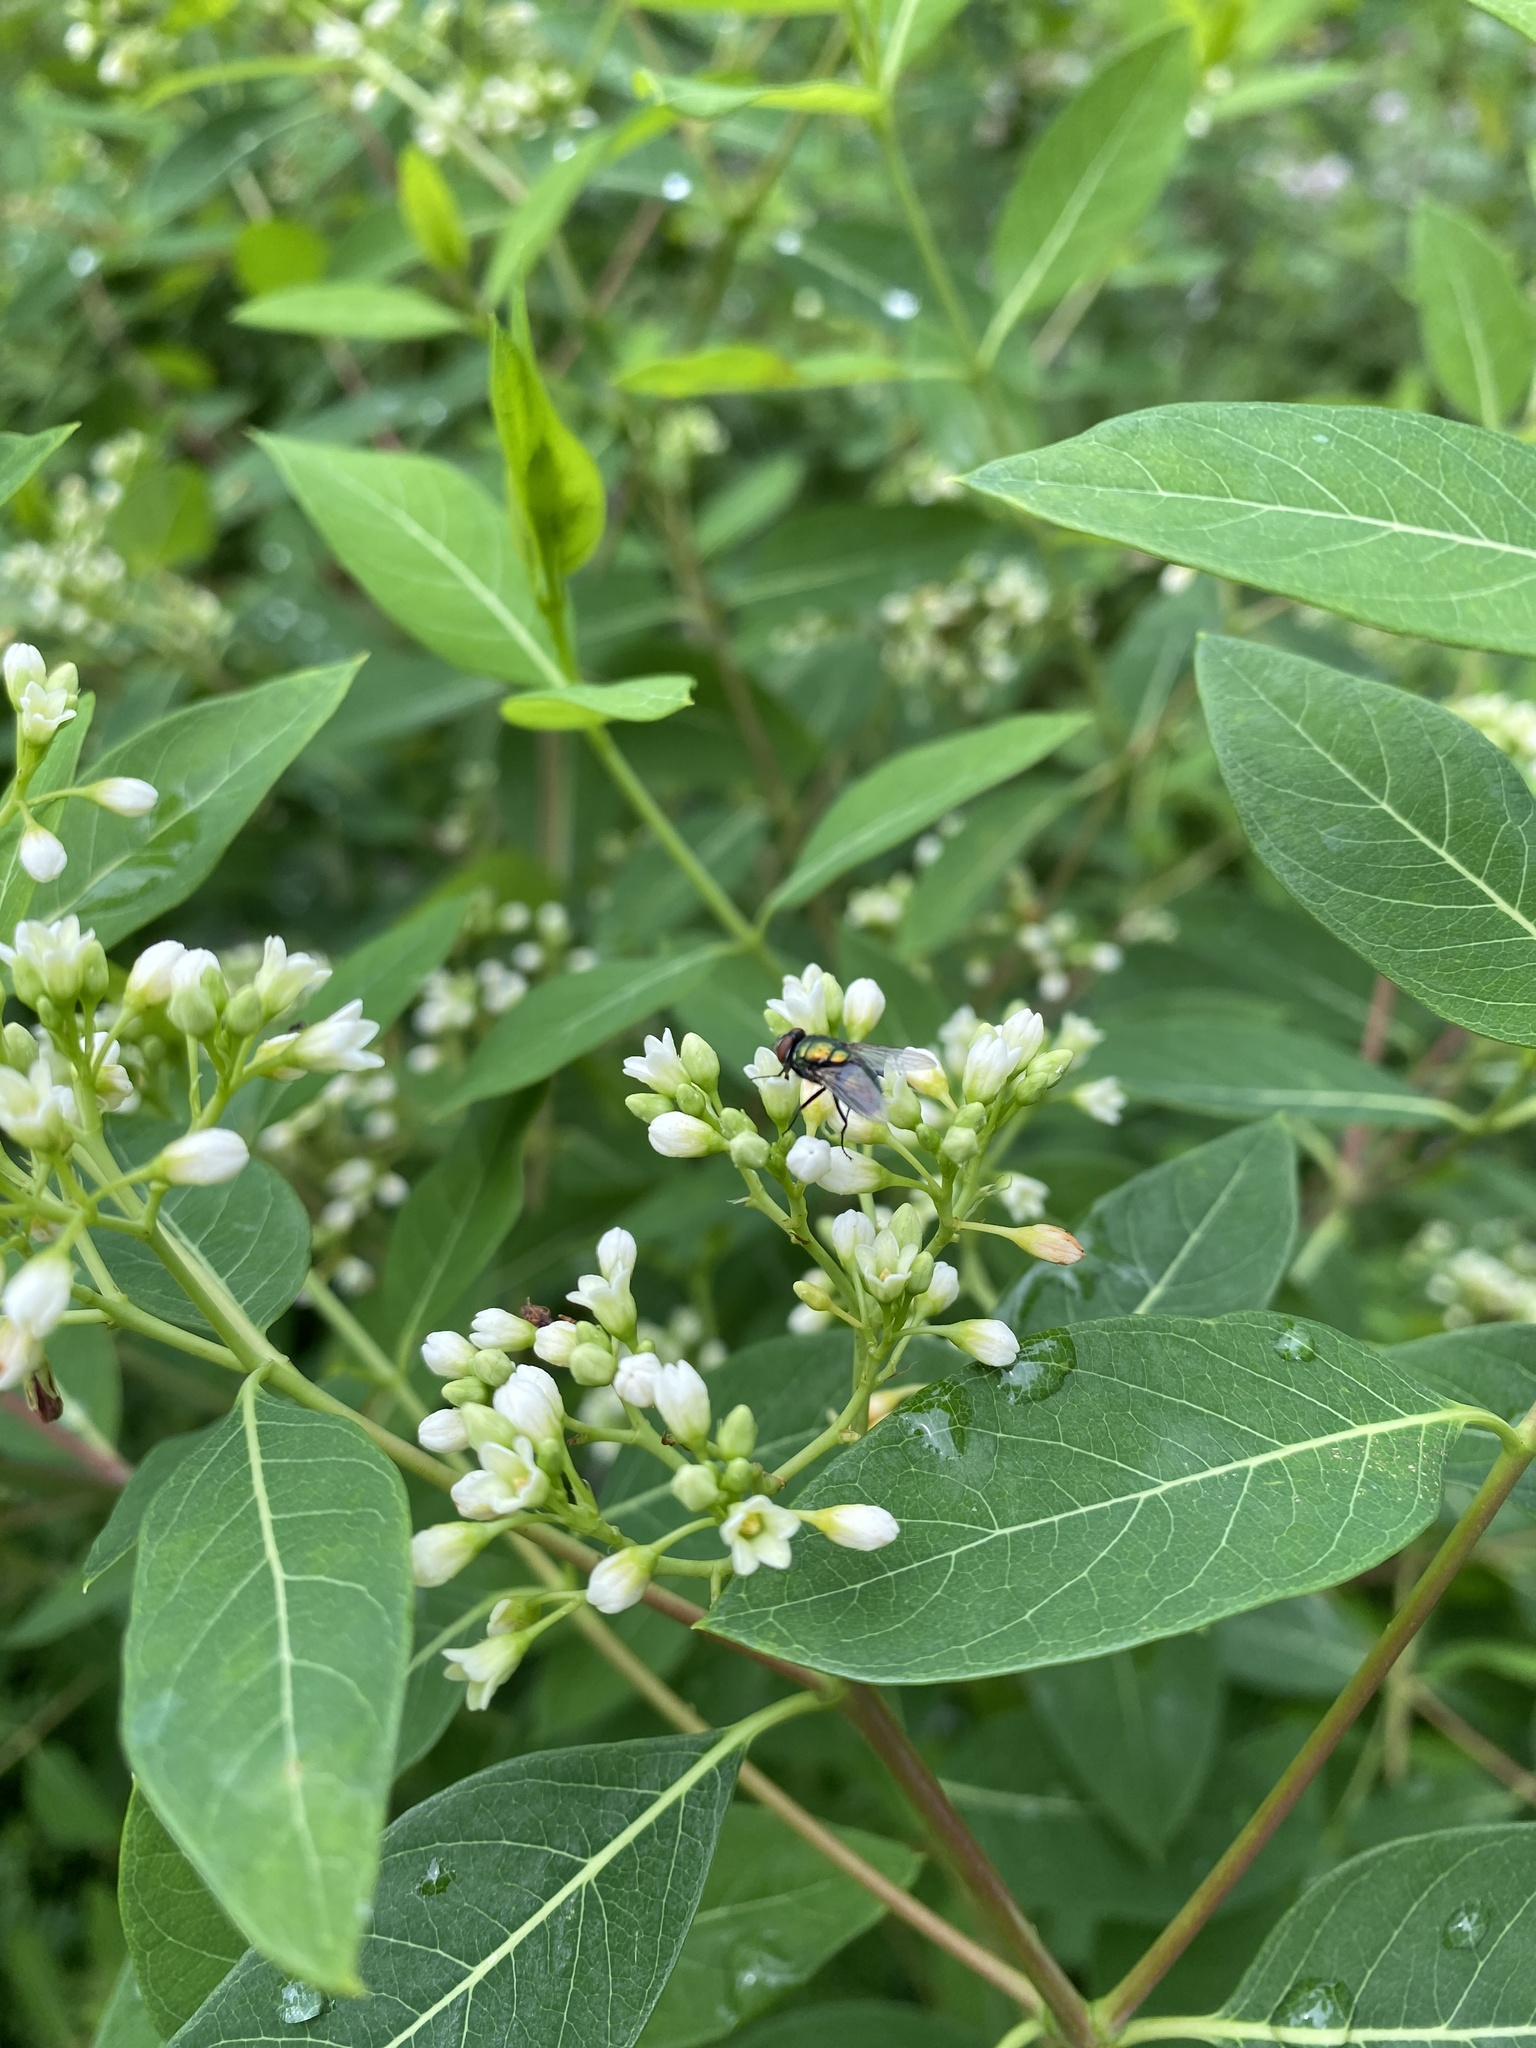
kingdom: Plantae
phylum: Tracheophyta
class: Magnoliopsida
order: Gentianales
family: Apocynaceae
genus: Apocynum
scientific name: Apocynum cannabinum
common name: Hemp dogbane
